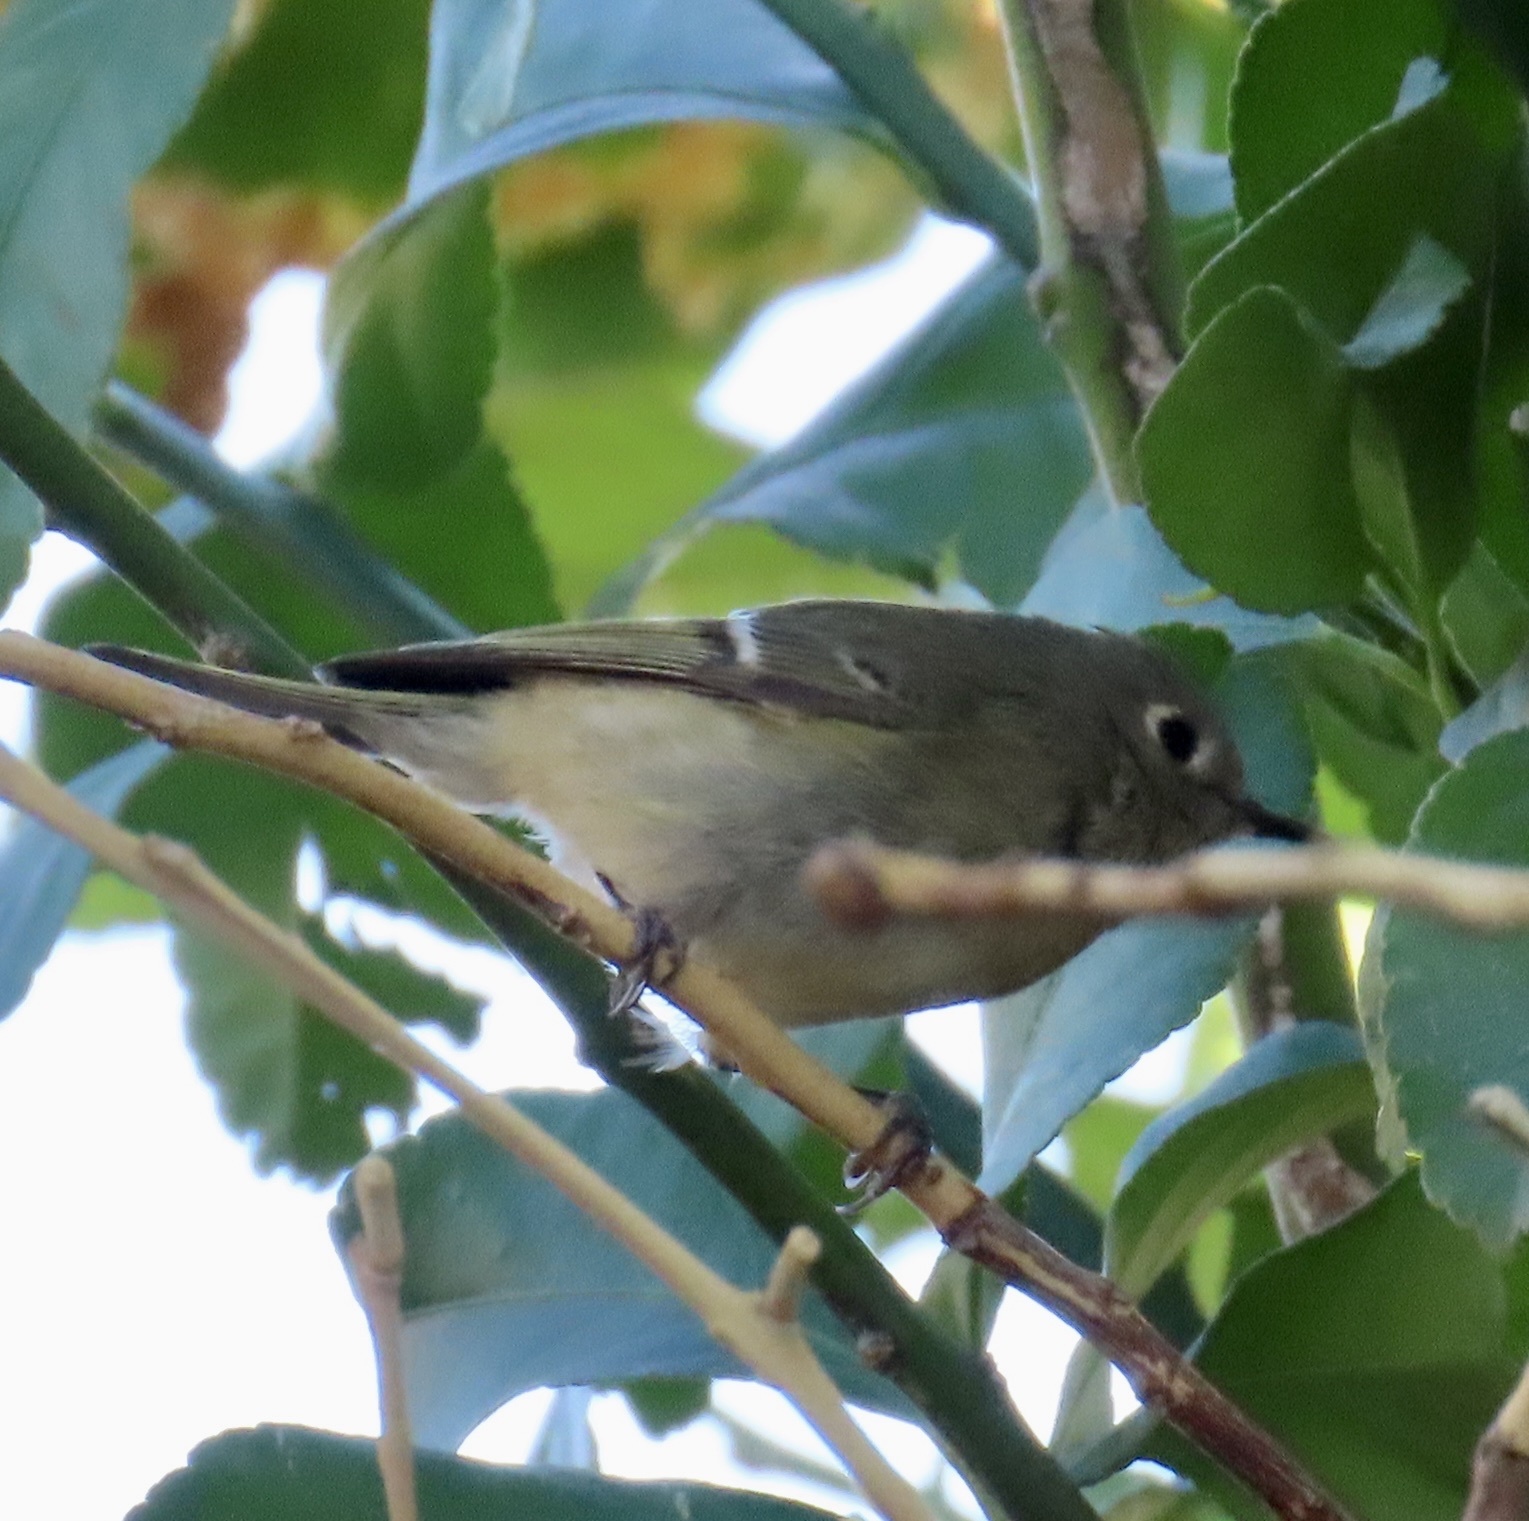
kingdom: Animalia
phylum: Chordata
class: Aves
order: Passeriformes
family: Regulidae
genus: Regulus
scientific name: Regulus calendula
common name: Ruby-crowned kinglet
